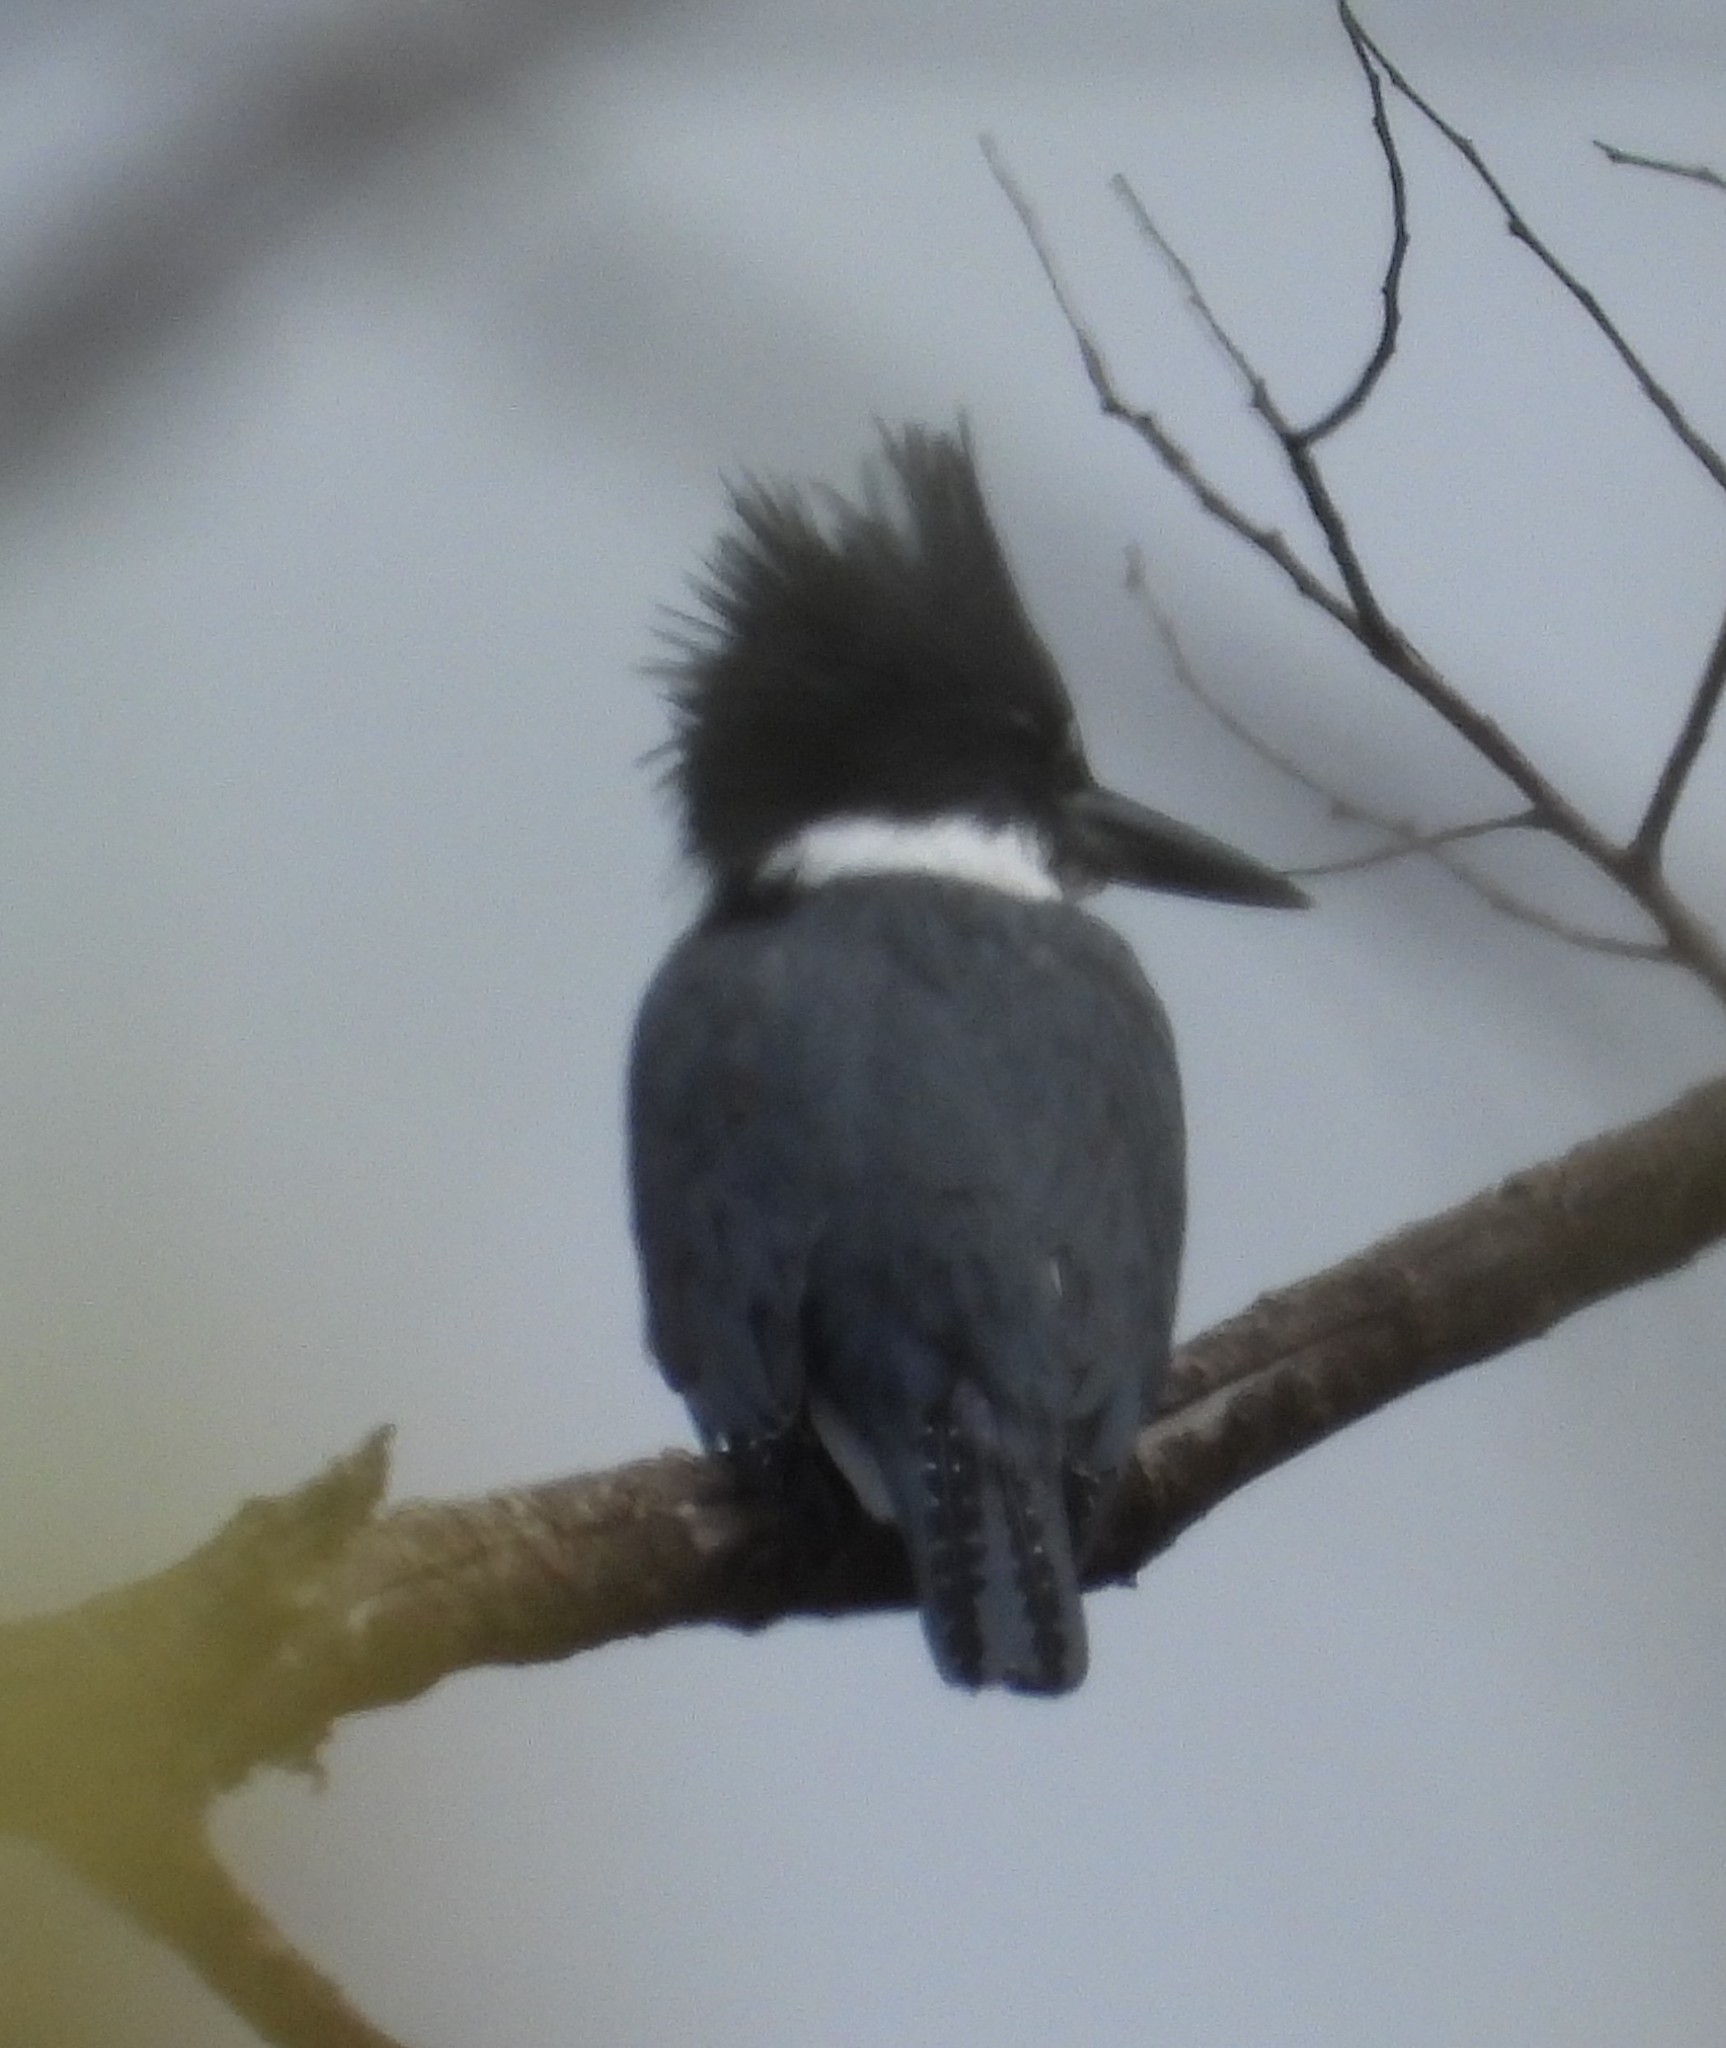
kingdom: Animalia
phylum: Chordata
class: Aves
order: Coraciiformes
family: Alcedinidae
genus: Megaceryle
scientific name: Megaceryle alcyon
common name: Belted kingfisher
